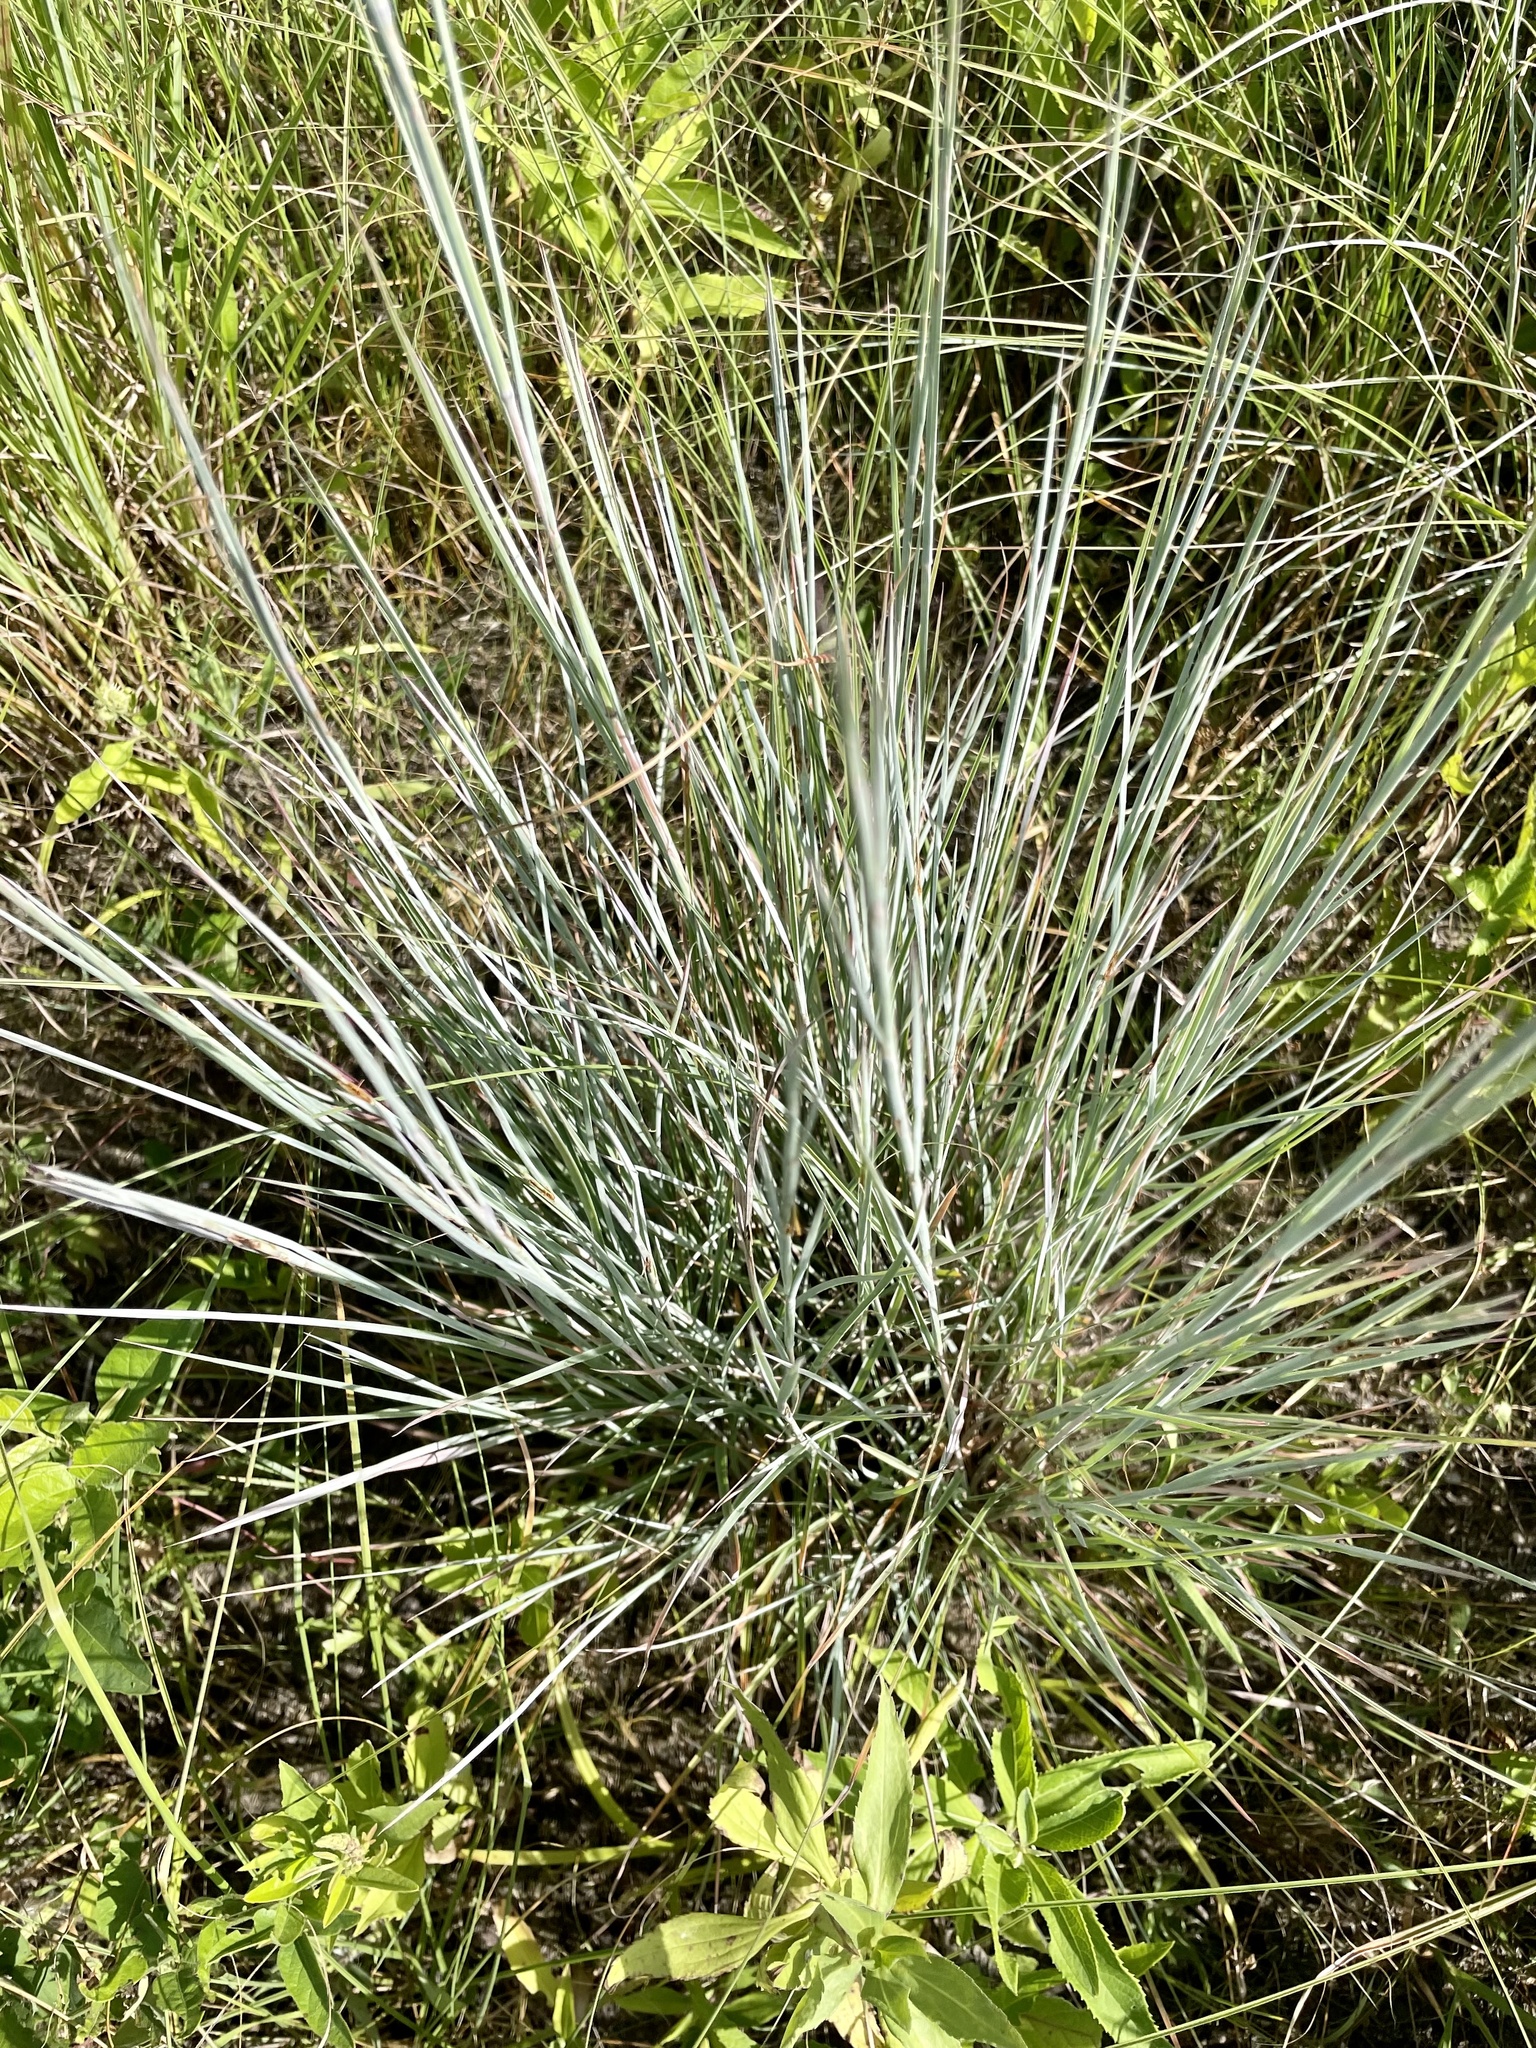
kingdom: Plantae
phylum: Tracheophyta
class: Liliopsida
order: Poales
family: Poaceae
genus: Schizachyrium
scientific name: Schizachyrium scoparium
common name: Little bluestem
